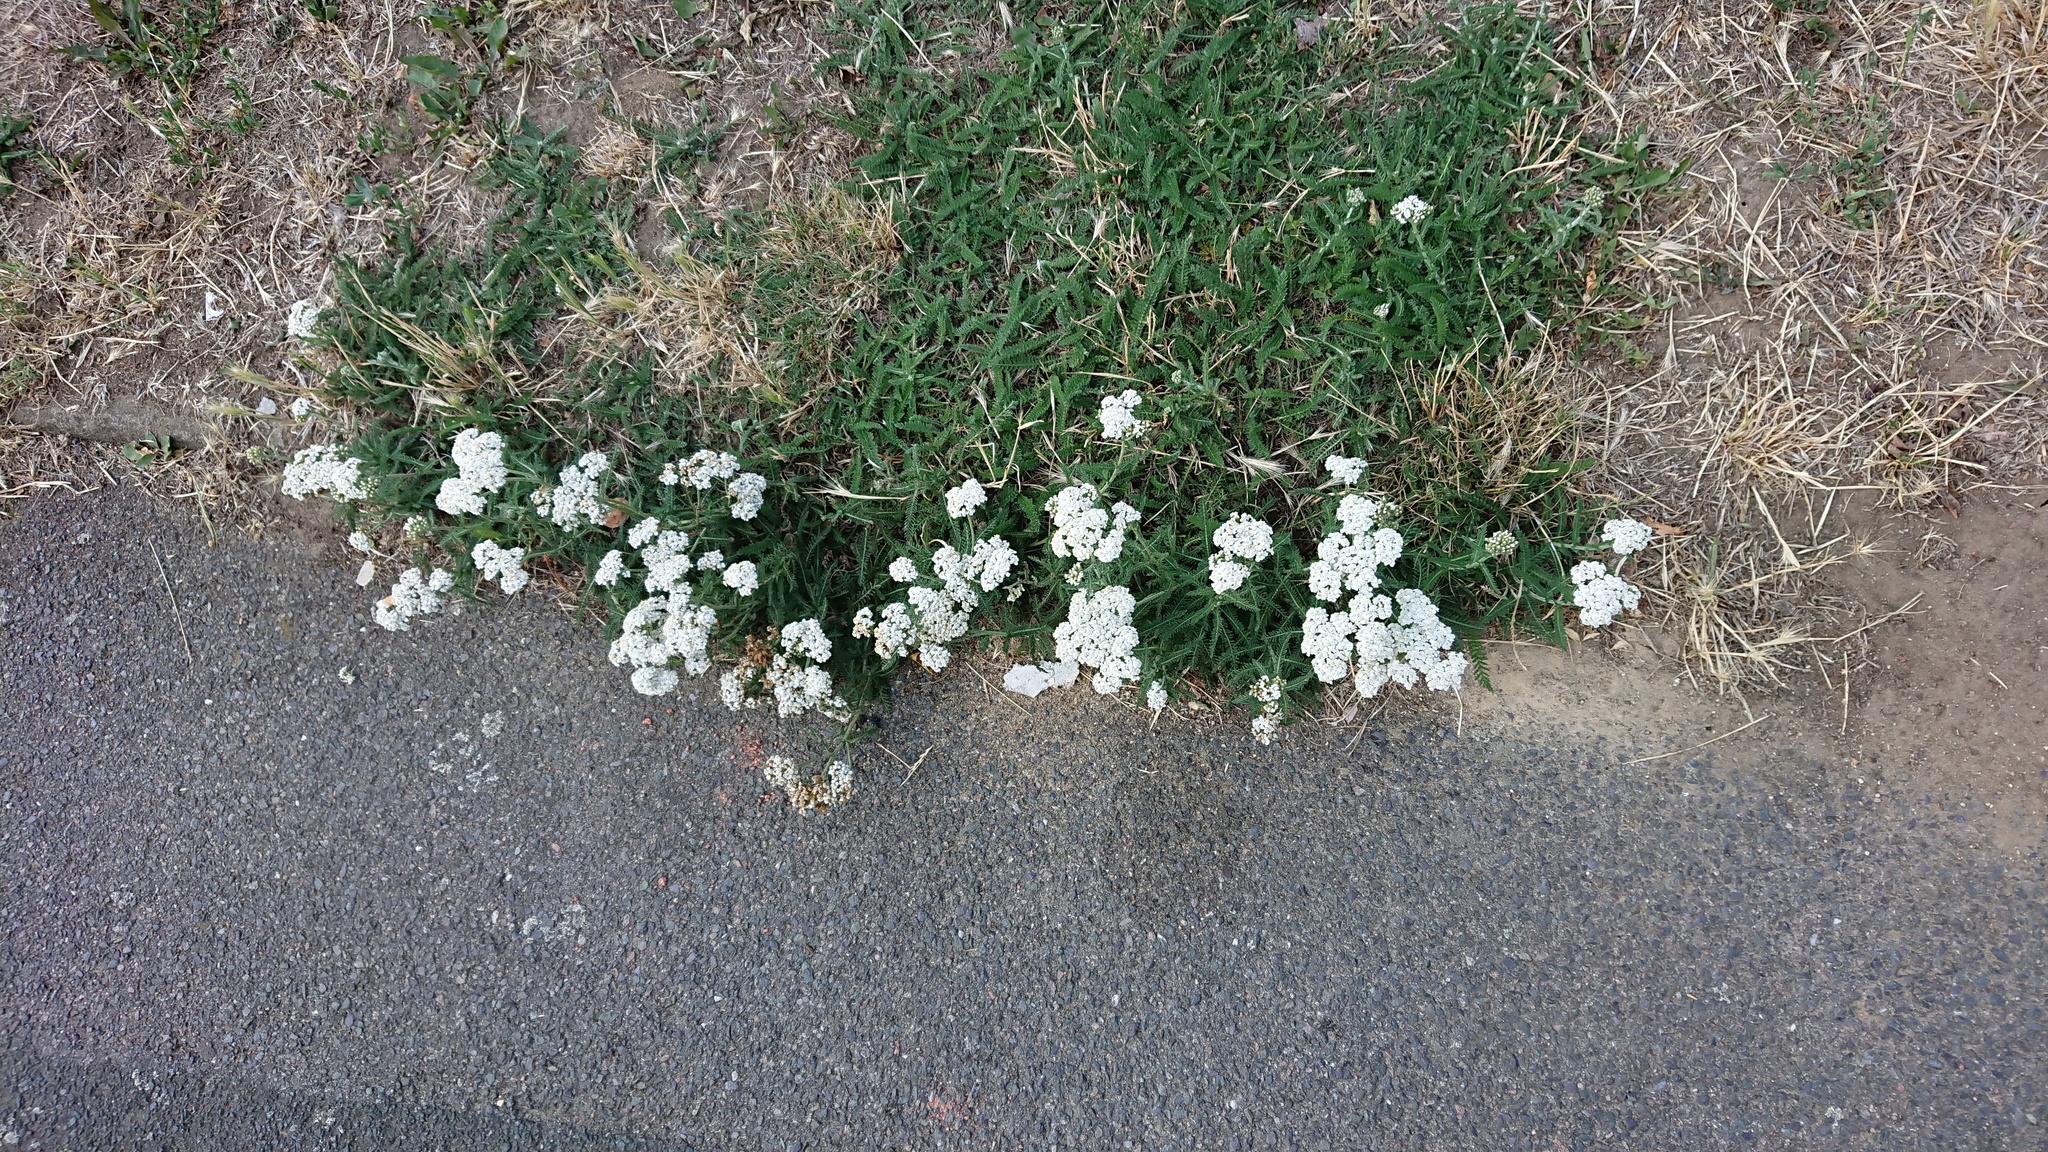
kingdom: Plantae
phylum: Tracheophyta
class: Magnoliopsida
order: Asterales
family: Asteraceae
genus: Achillea
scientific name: Achillea millefolium
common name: Yarrow
